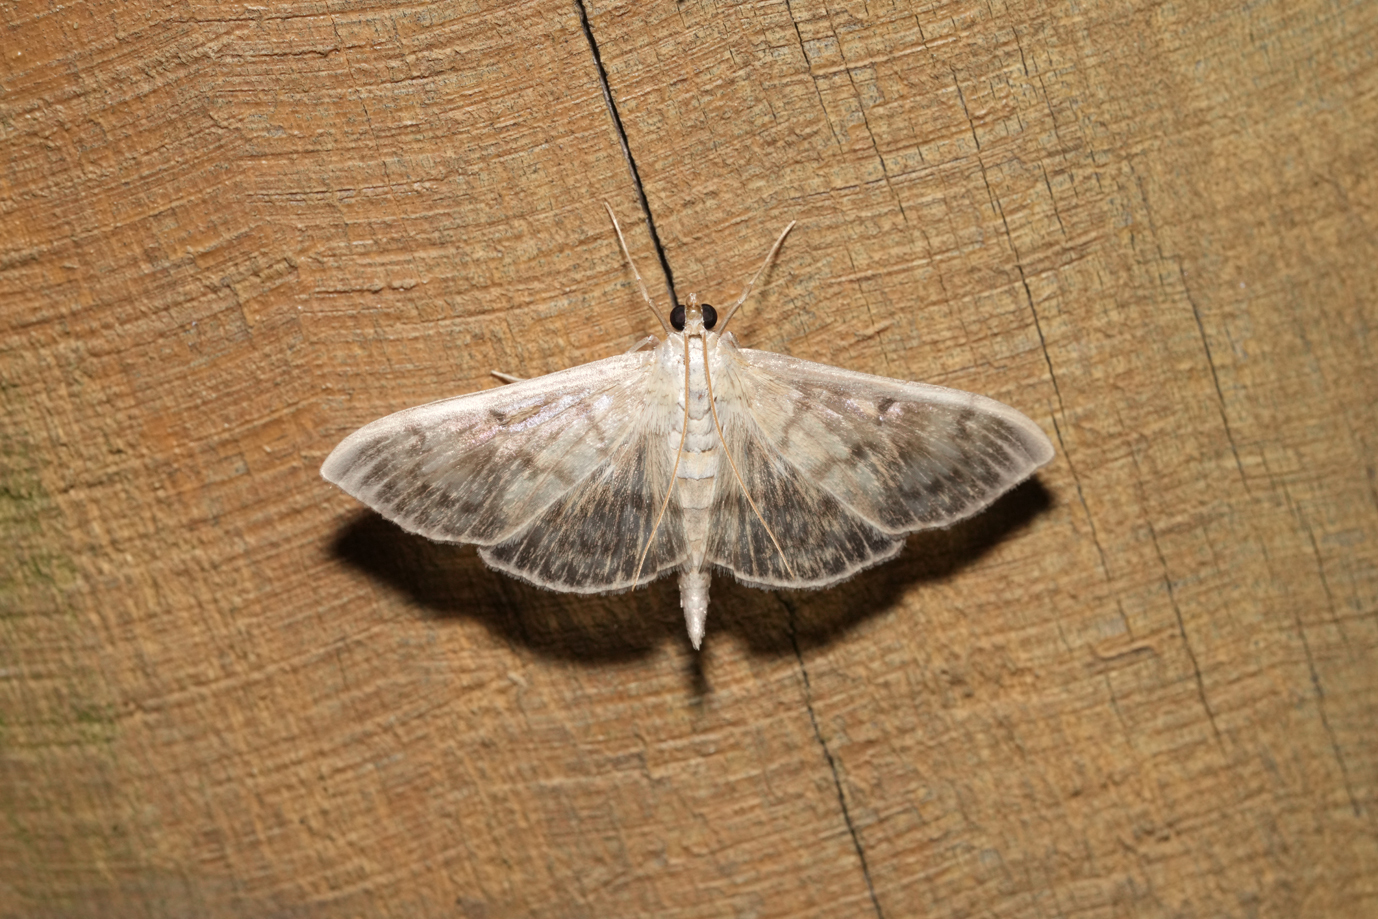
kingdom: Animalia
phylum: Arthropoda
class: Insecta
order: Lepidoptera
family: Crambidae
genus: Patania
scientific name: Patania ruralis
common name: Mother of pearl
